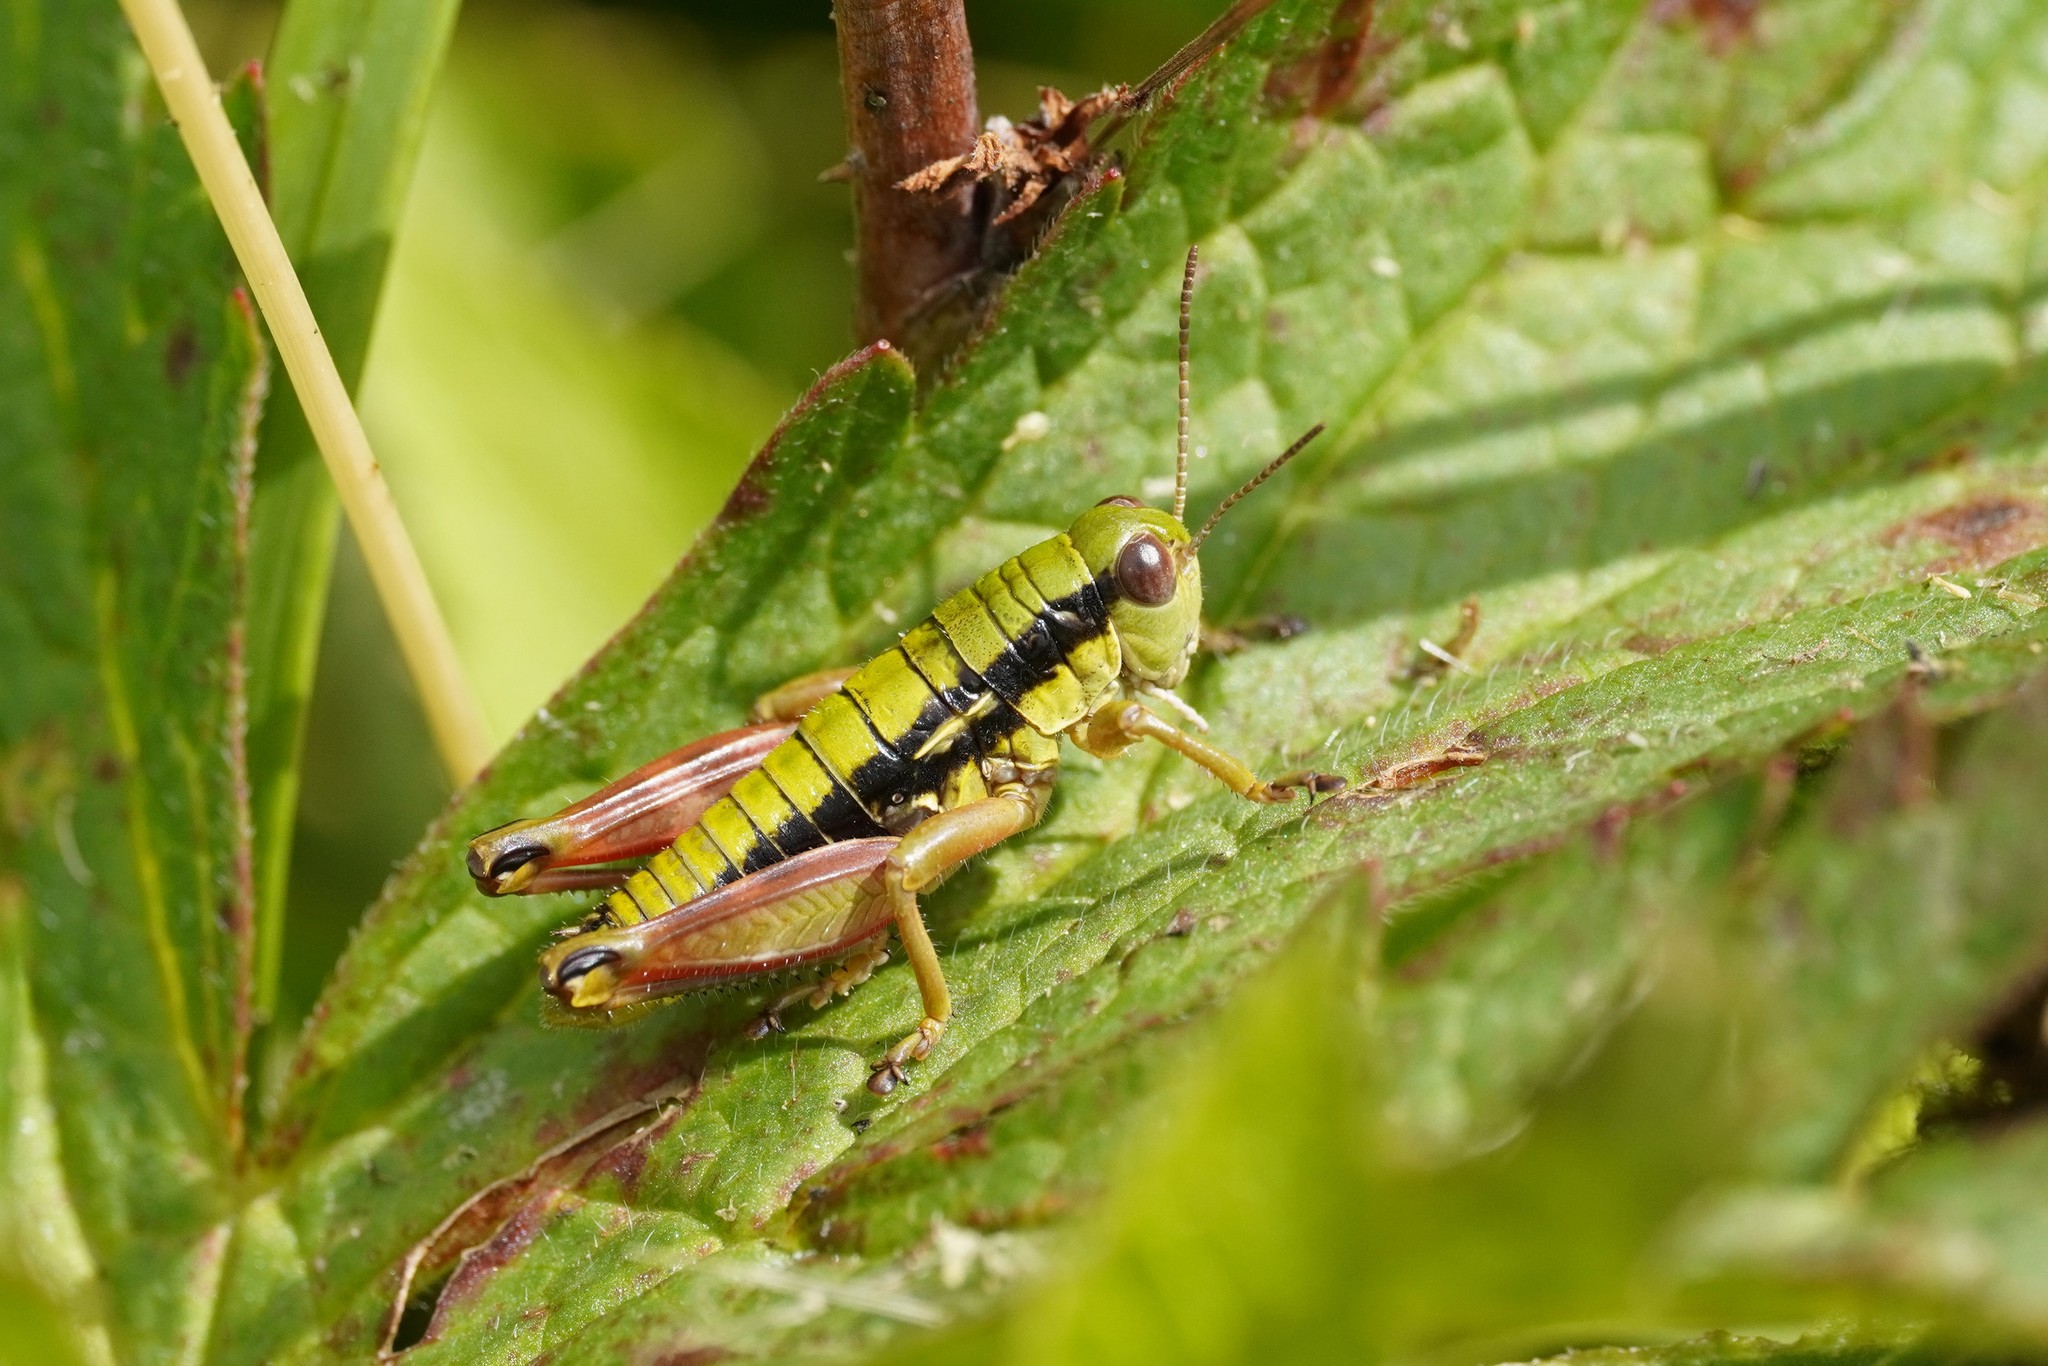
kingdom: Animalia
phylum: Arthropoda
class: Insecta
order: Orthoptera
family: Acrididae
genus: Epipodisma
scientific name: Epipodisma pedemontana
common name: Piedmont mountain grasshopper
